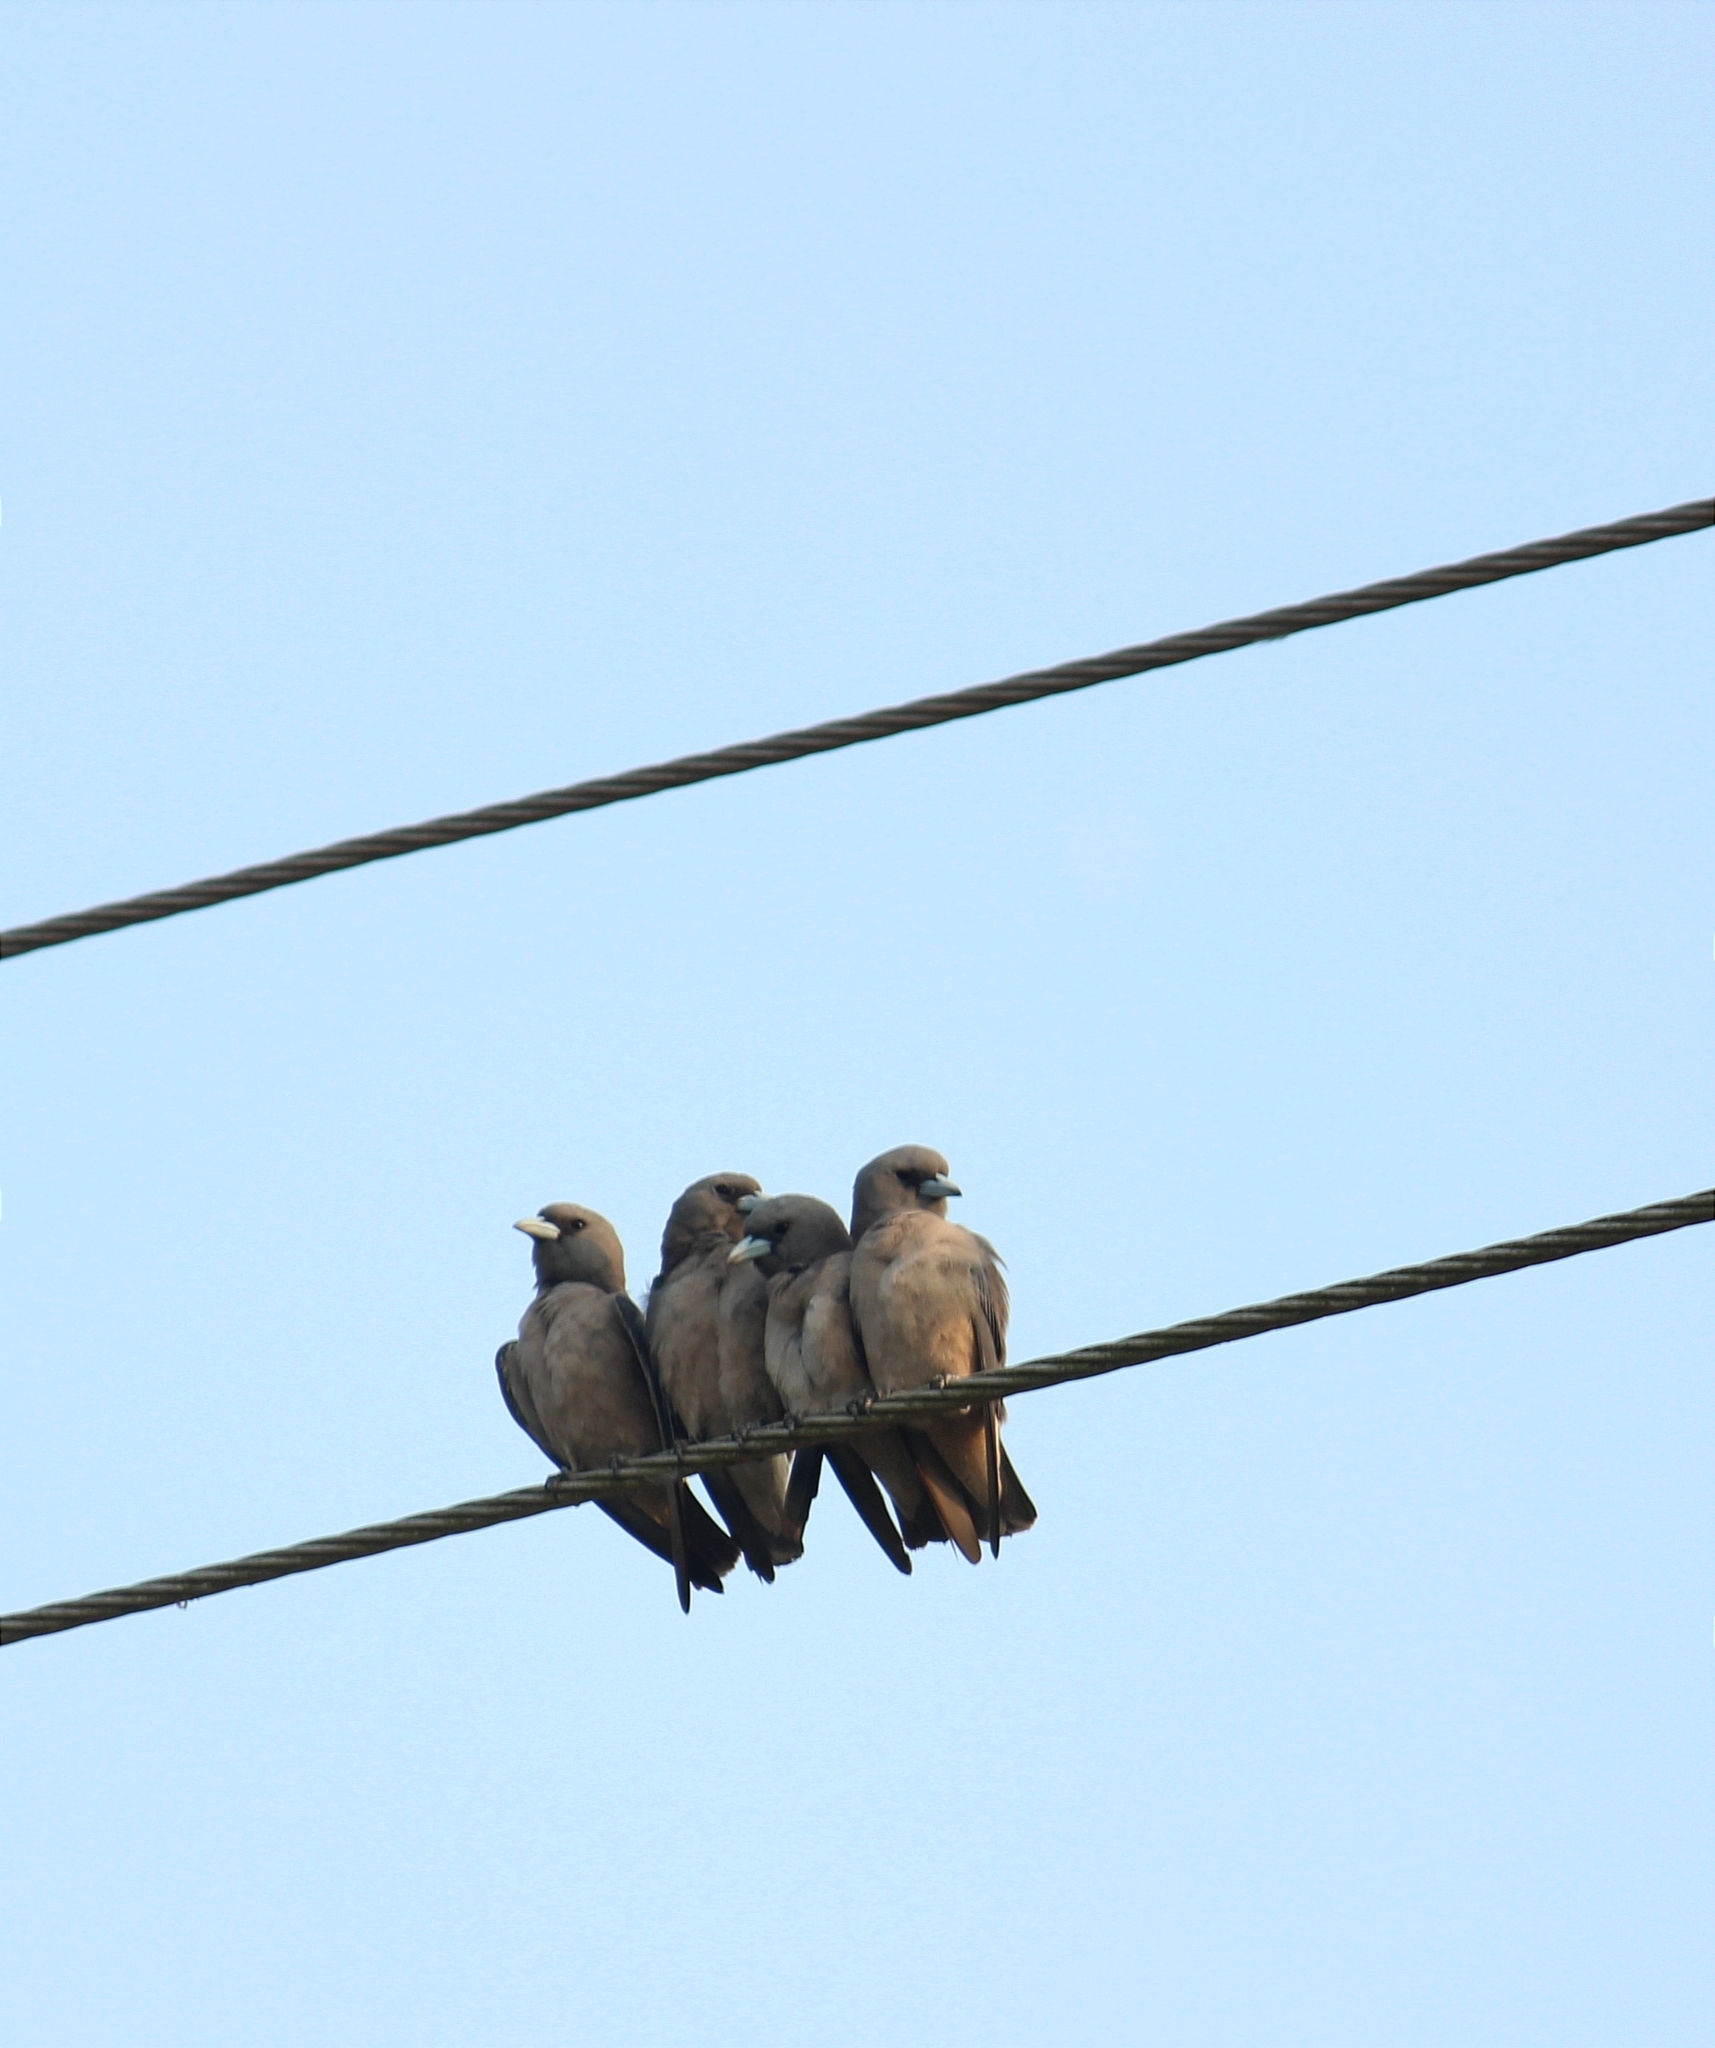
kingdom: Animalia
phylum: Chordata
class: Aves
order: Passeriformes
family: Artamidae
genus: Artamus
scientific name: Artamus fuscus
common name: Ashy woodswallow
